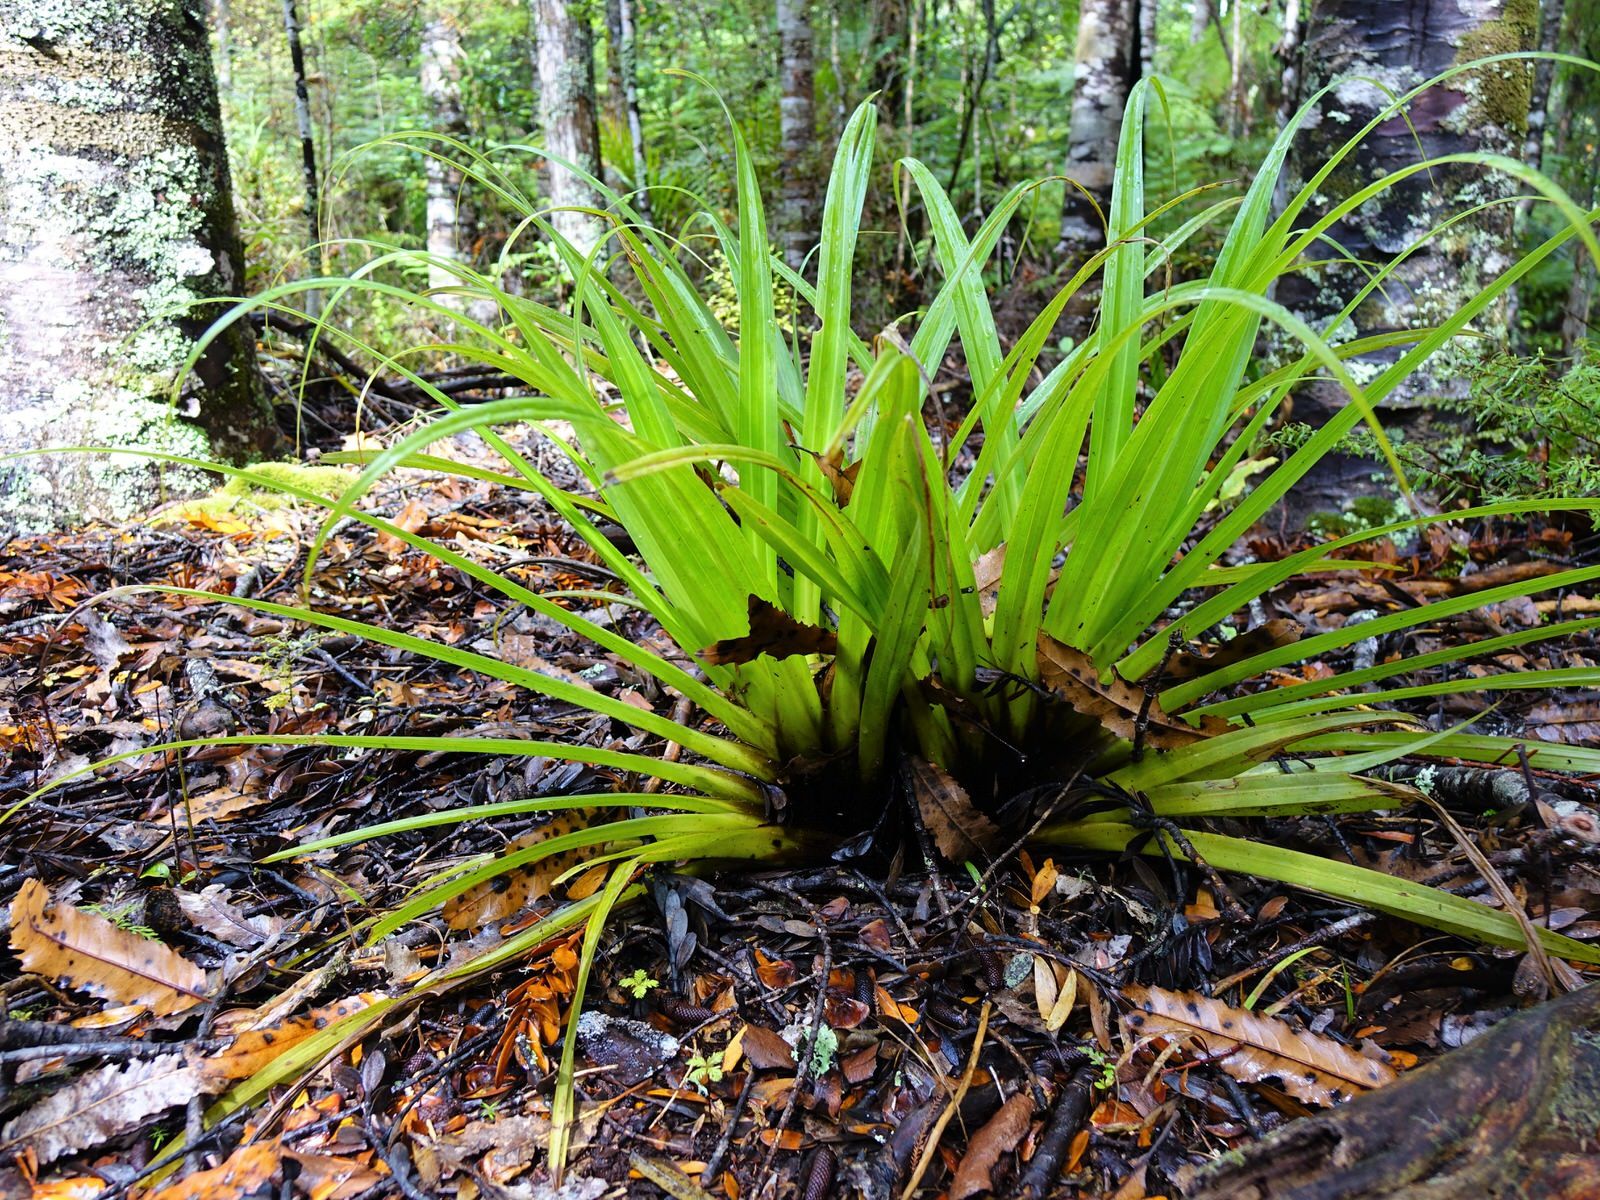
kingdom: Plantae
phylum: Tracheophyta
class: Liliopsida
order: Asparagales
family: Asteliaceae
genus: Astelia
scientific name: Astelia hastata
